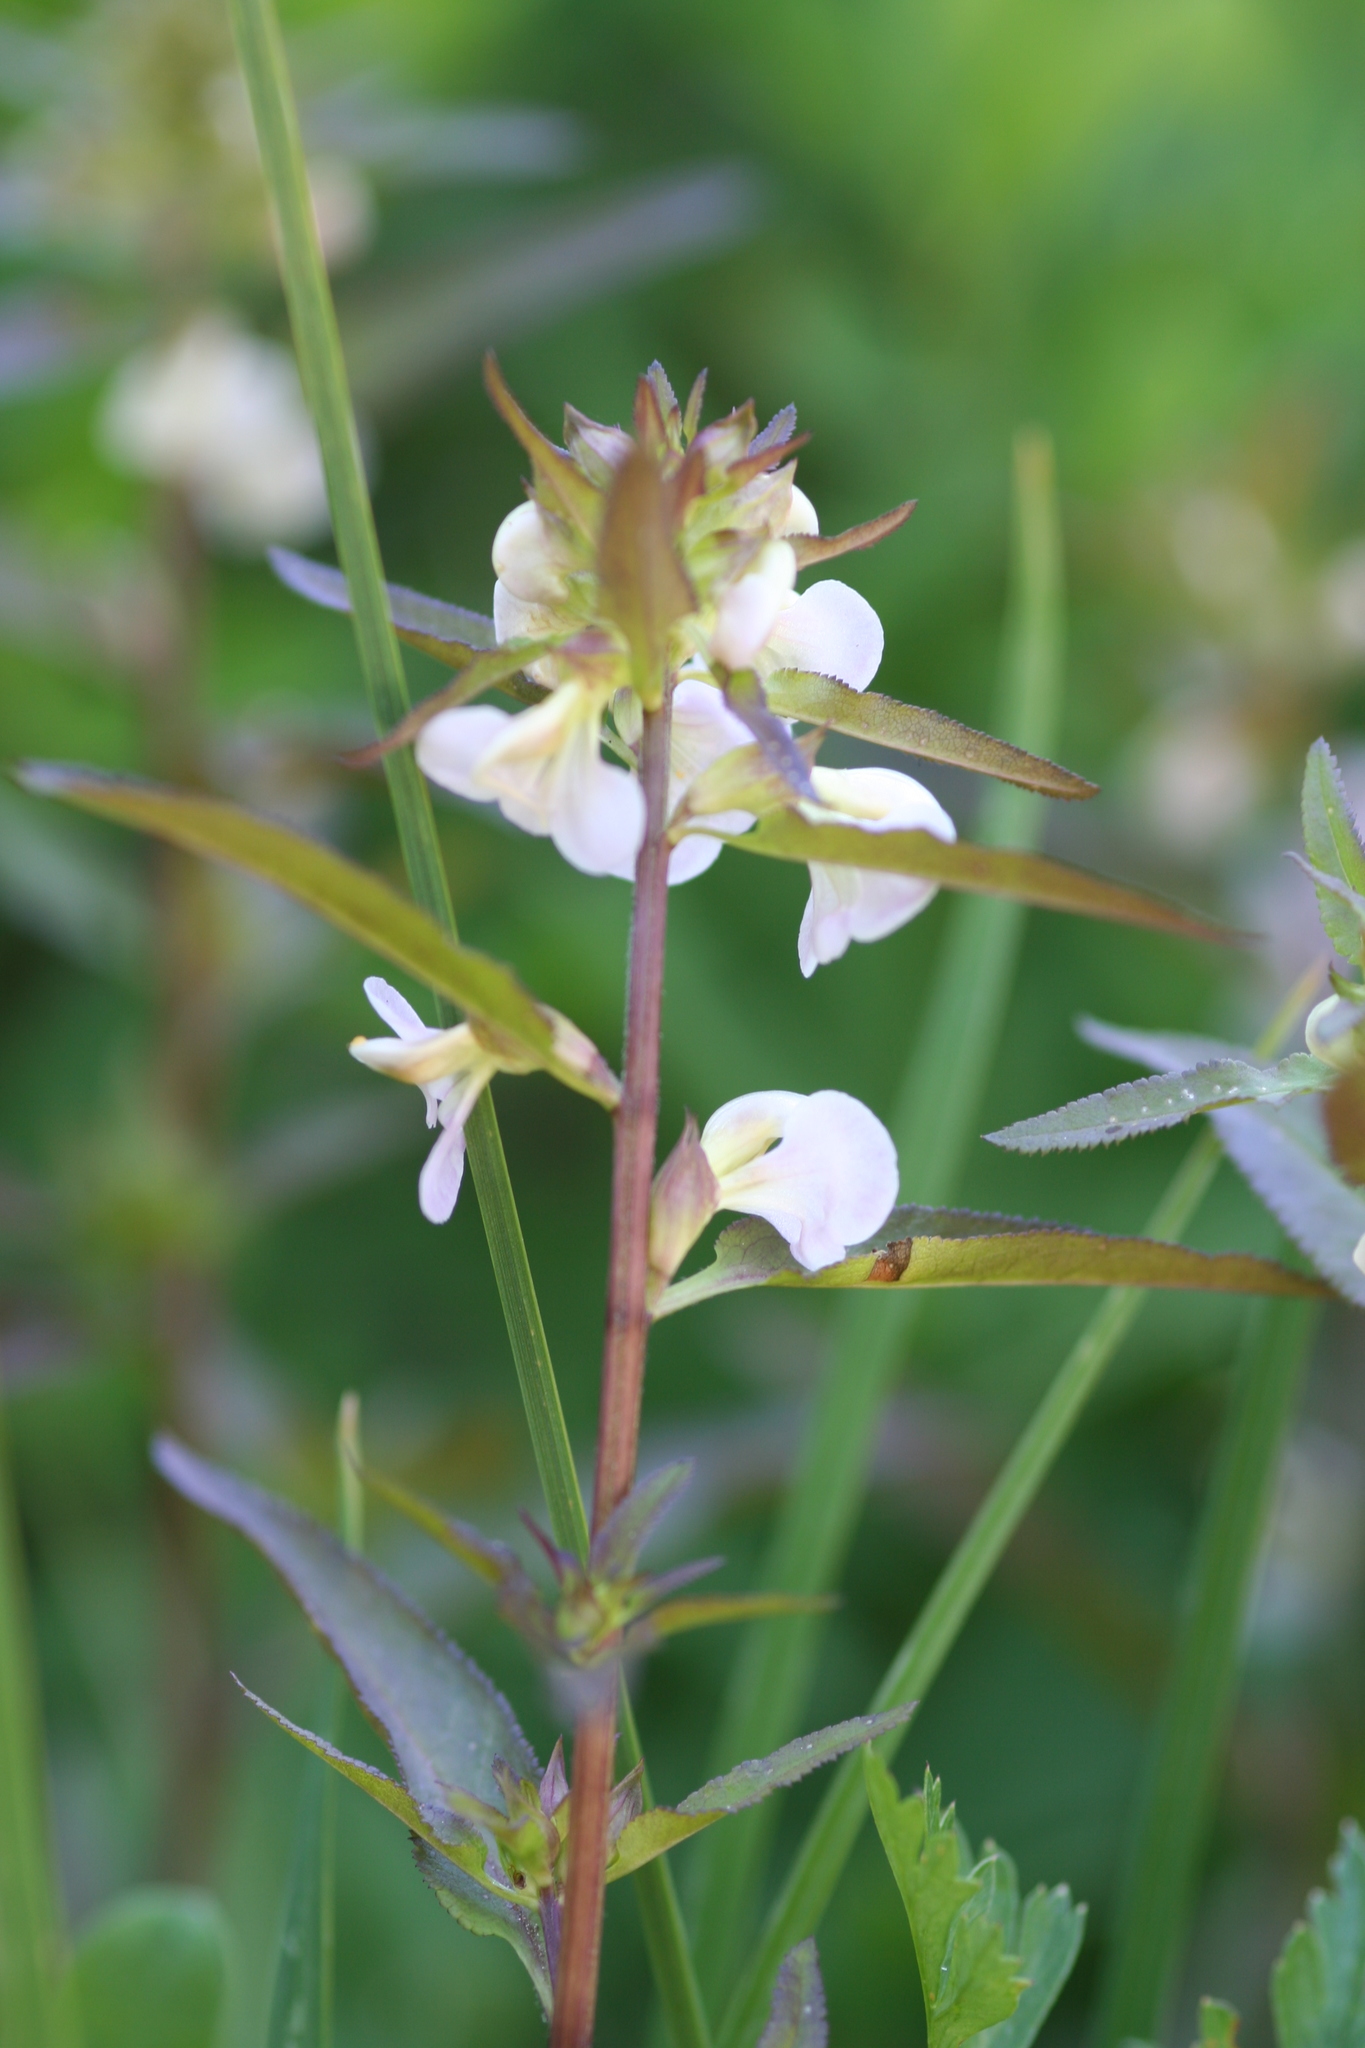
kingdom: Plantae
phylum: Tracheophyta
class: Magnoliopsida
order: Lamiales
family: Orobanchaceae
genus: Pedicularis
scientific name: Pedicularis racemosa
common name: Leafy lousewort
